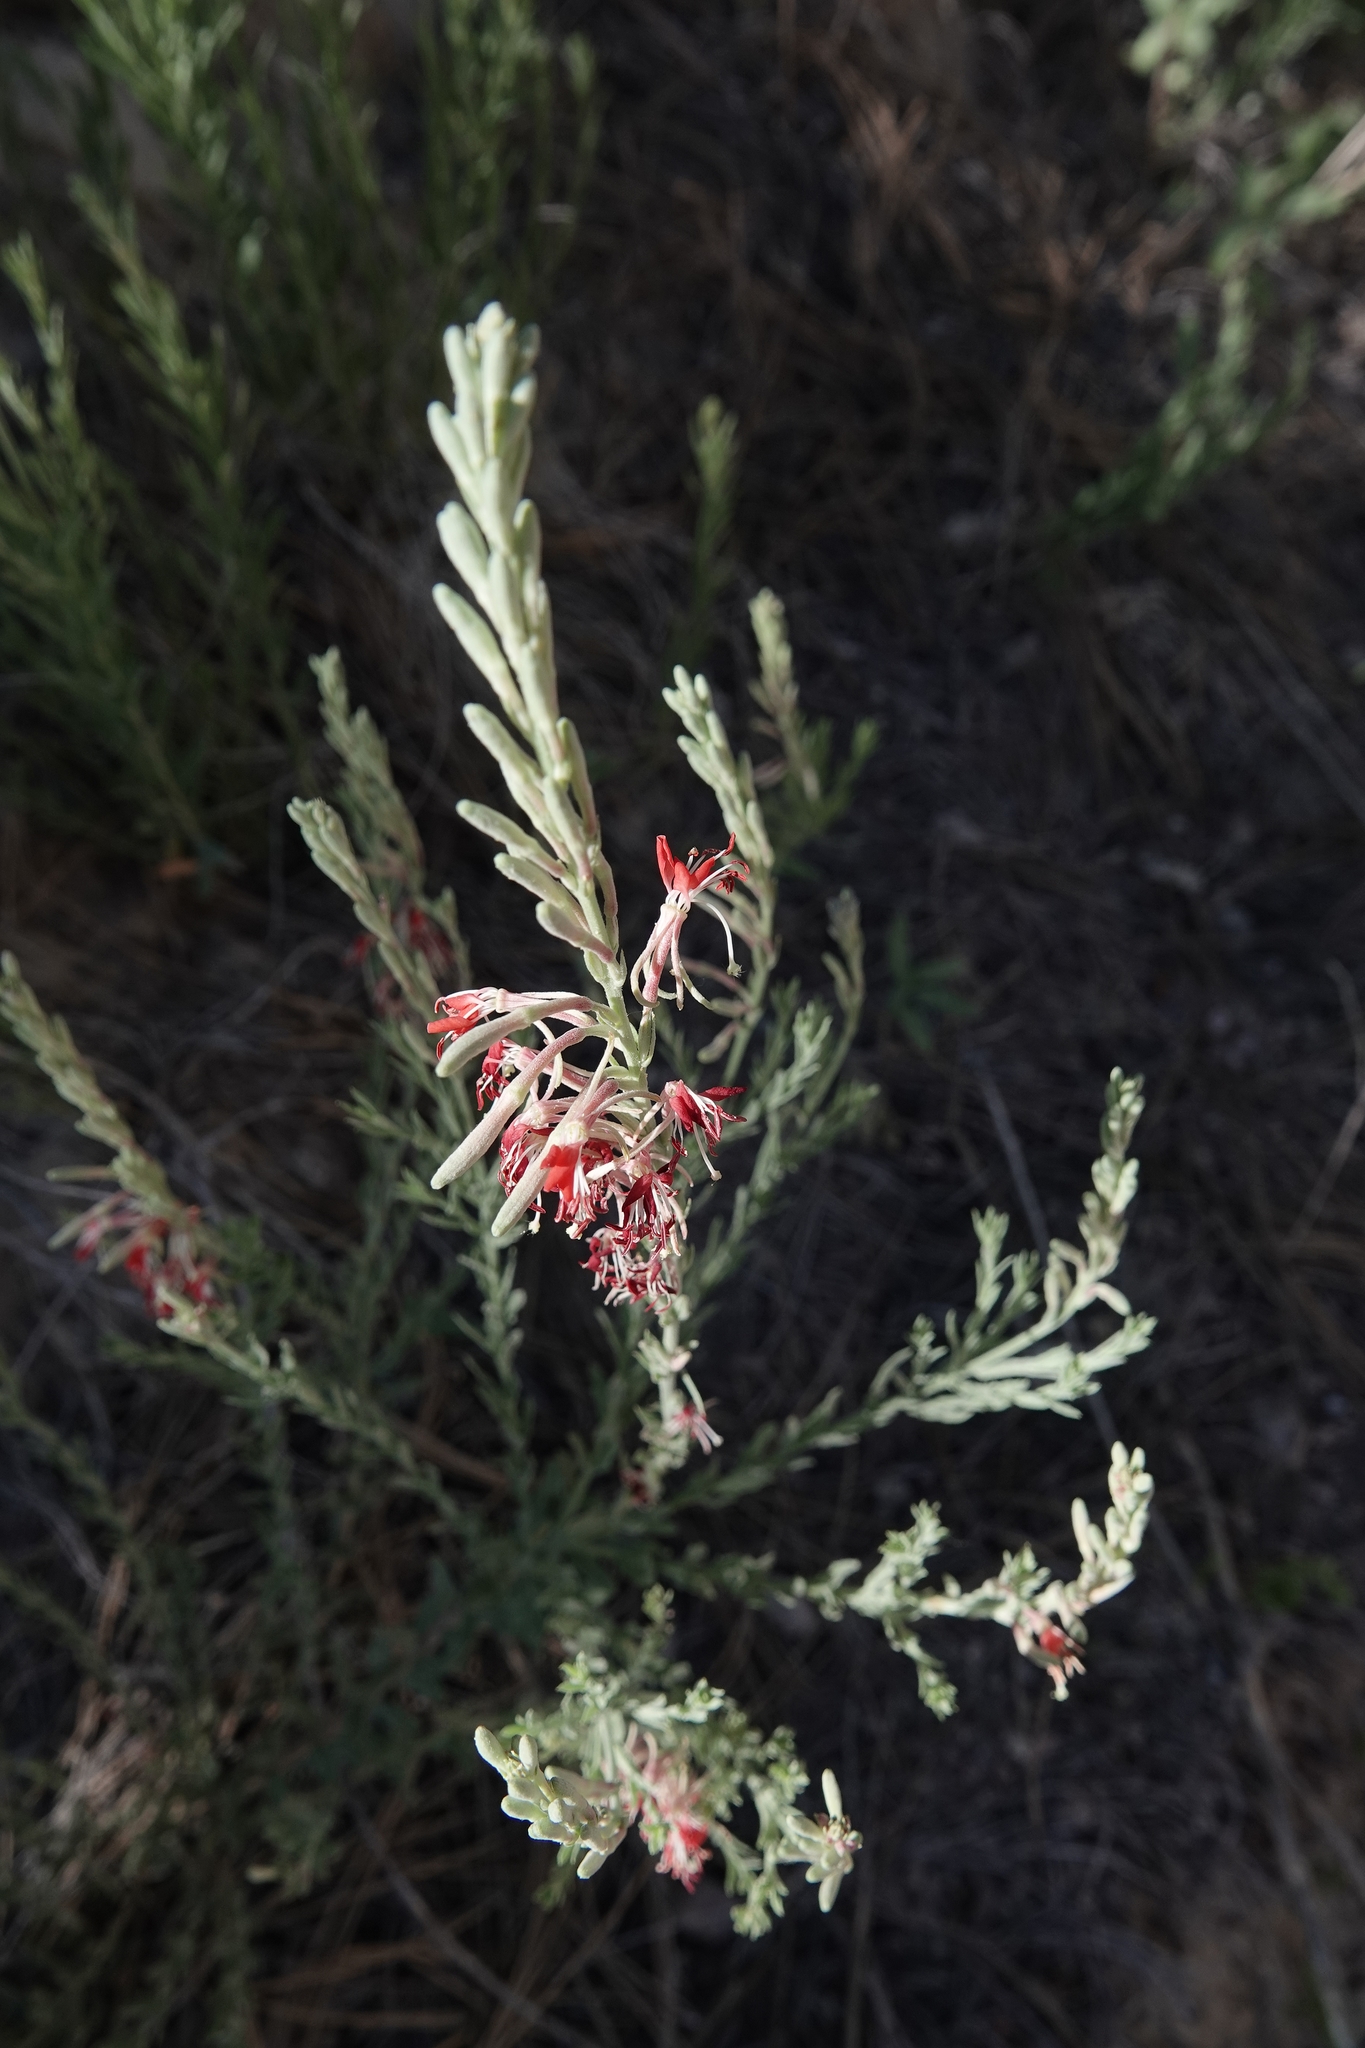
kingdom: Plantae
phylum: Tracheophyta
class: Magnoliopsida
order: Myrtales
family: Onagraceae
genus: Oenothera
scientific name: Oenothera suffrutescens
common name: Scarlet beeblossom
